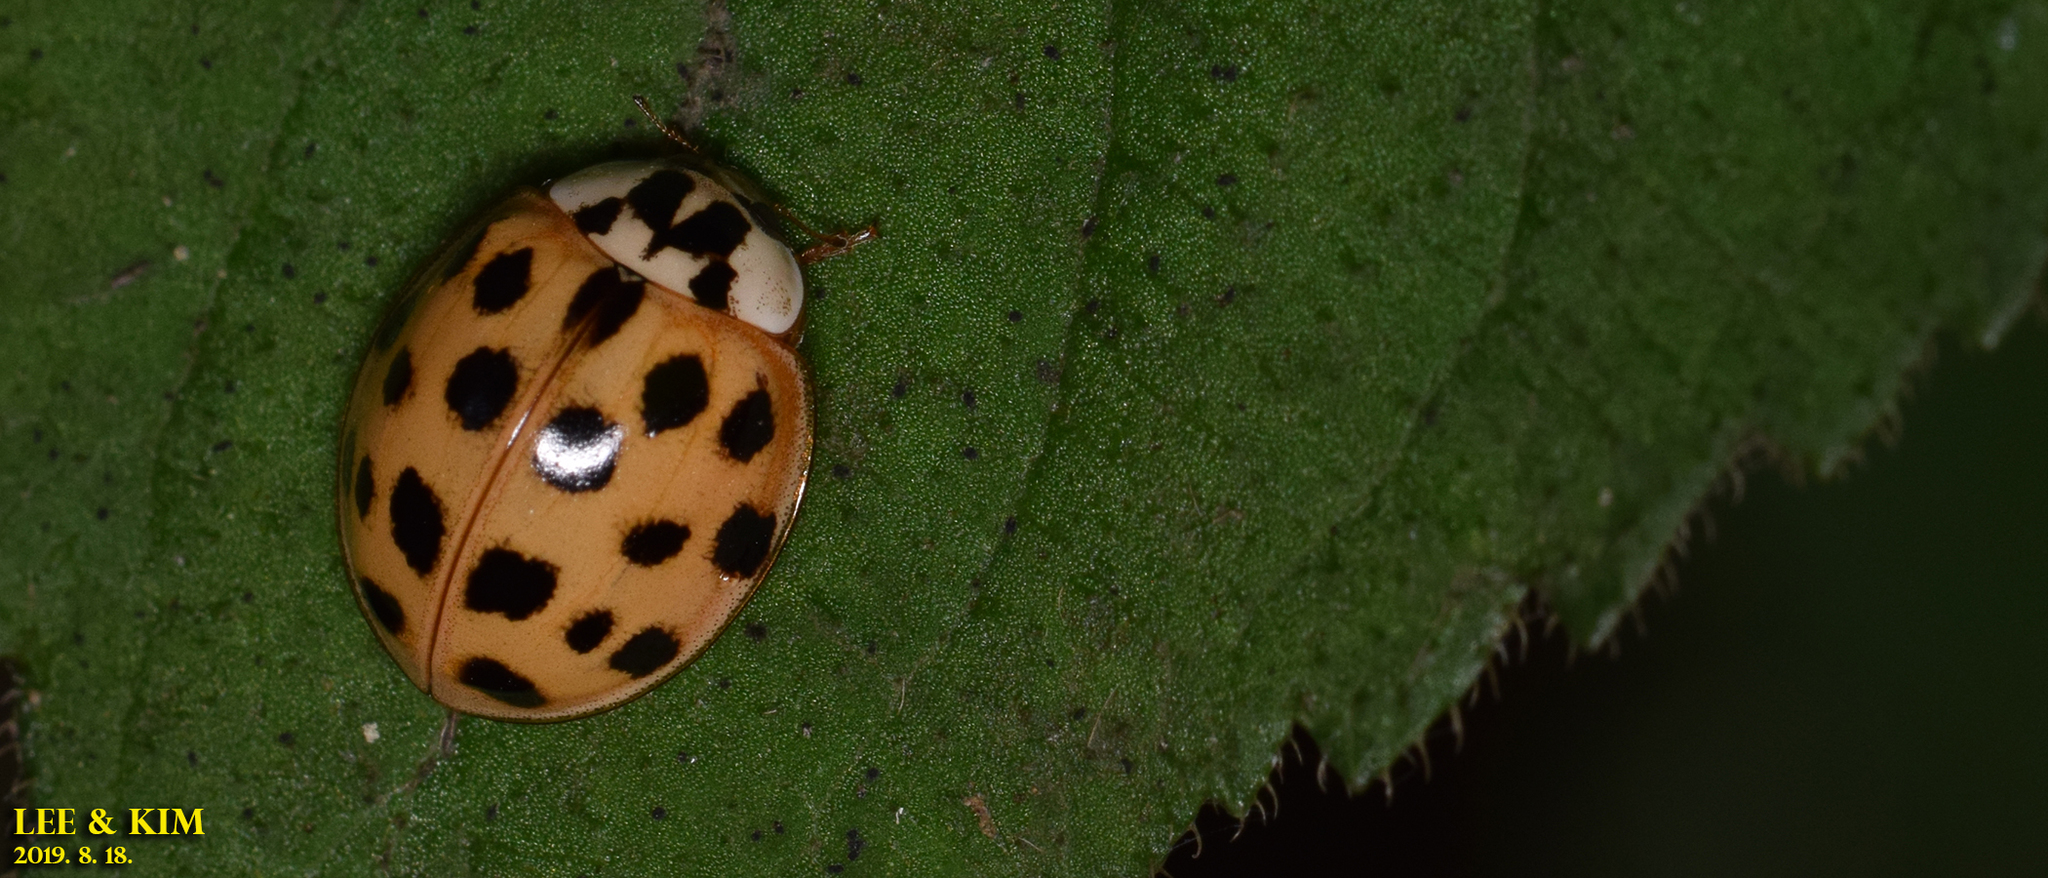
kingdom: Animalia
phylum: Arthropoda
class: Insecta
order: Coleoptera
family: Coccinellidae
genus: Harmonia
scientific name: Harmonia axyridis
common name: Harlequin ladybird
